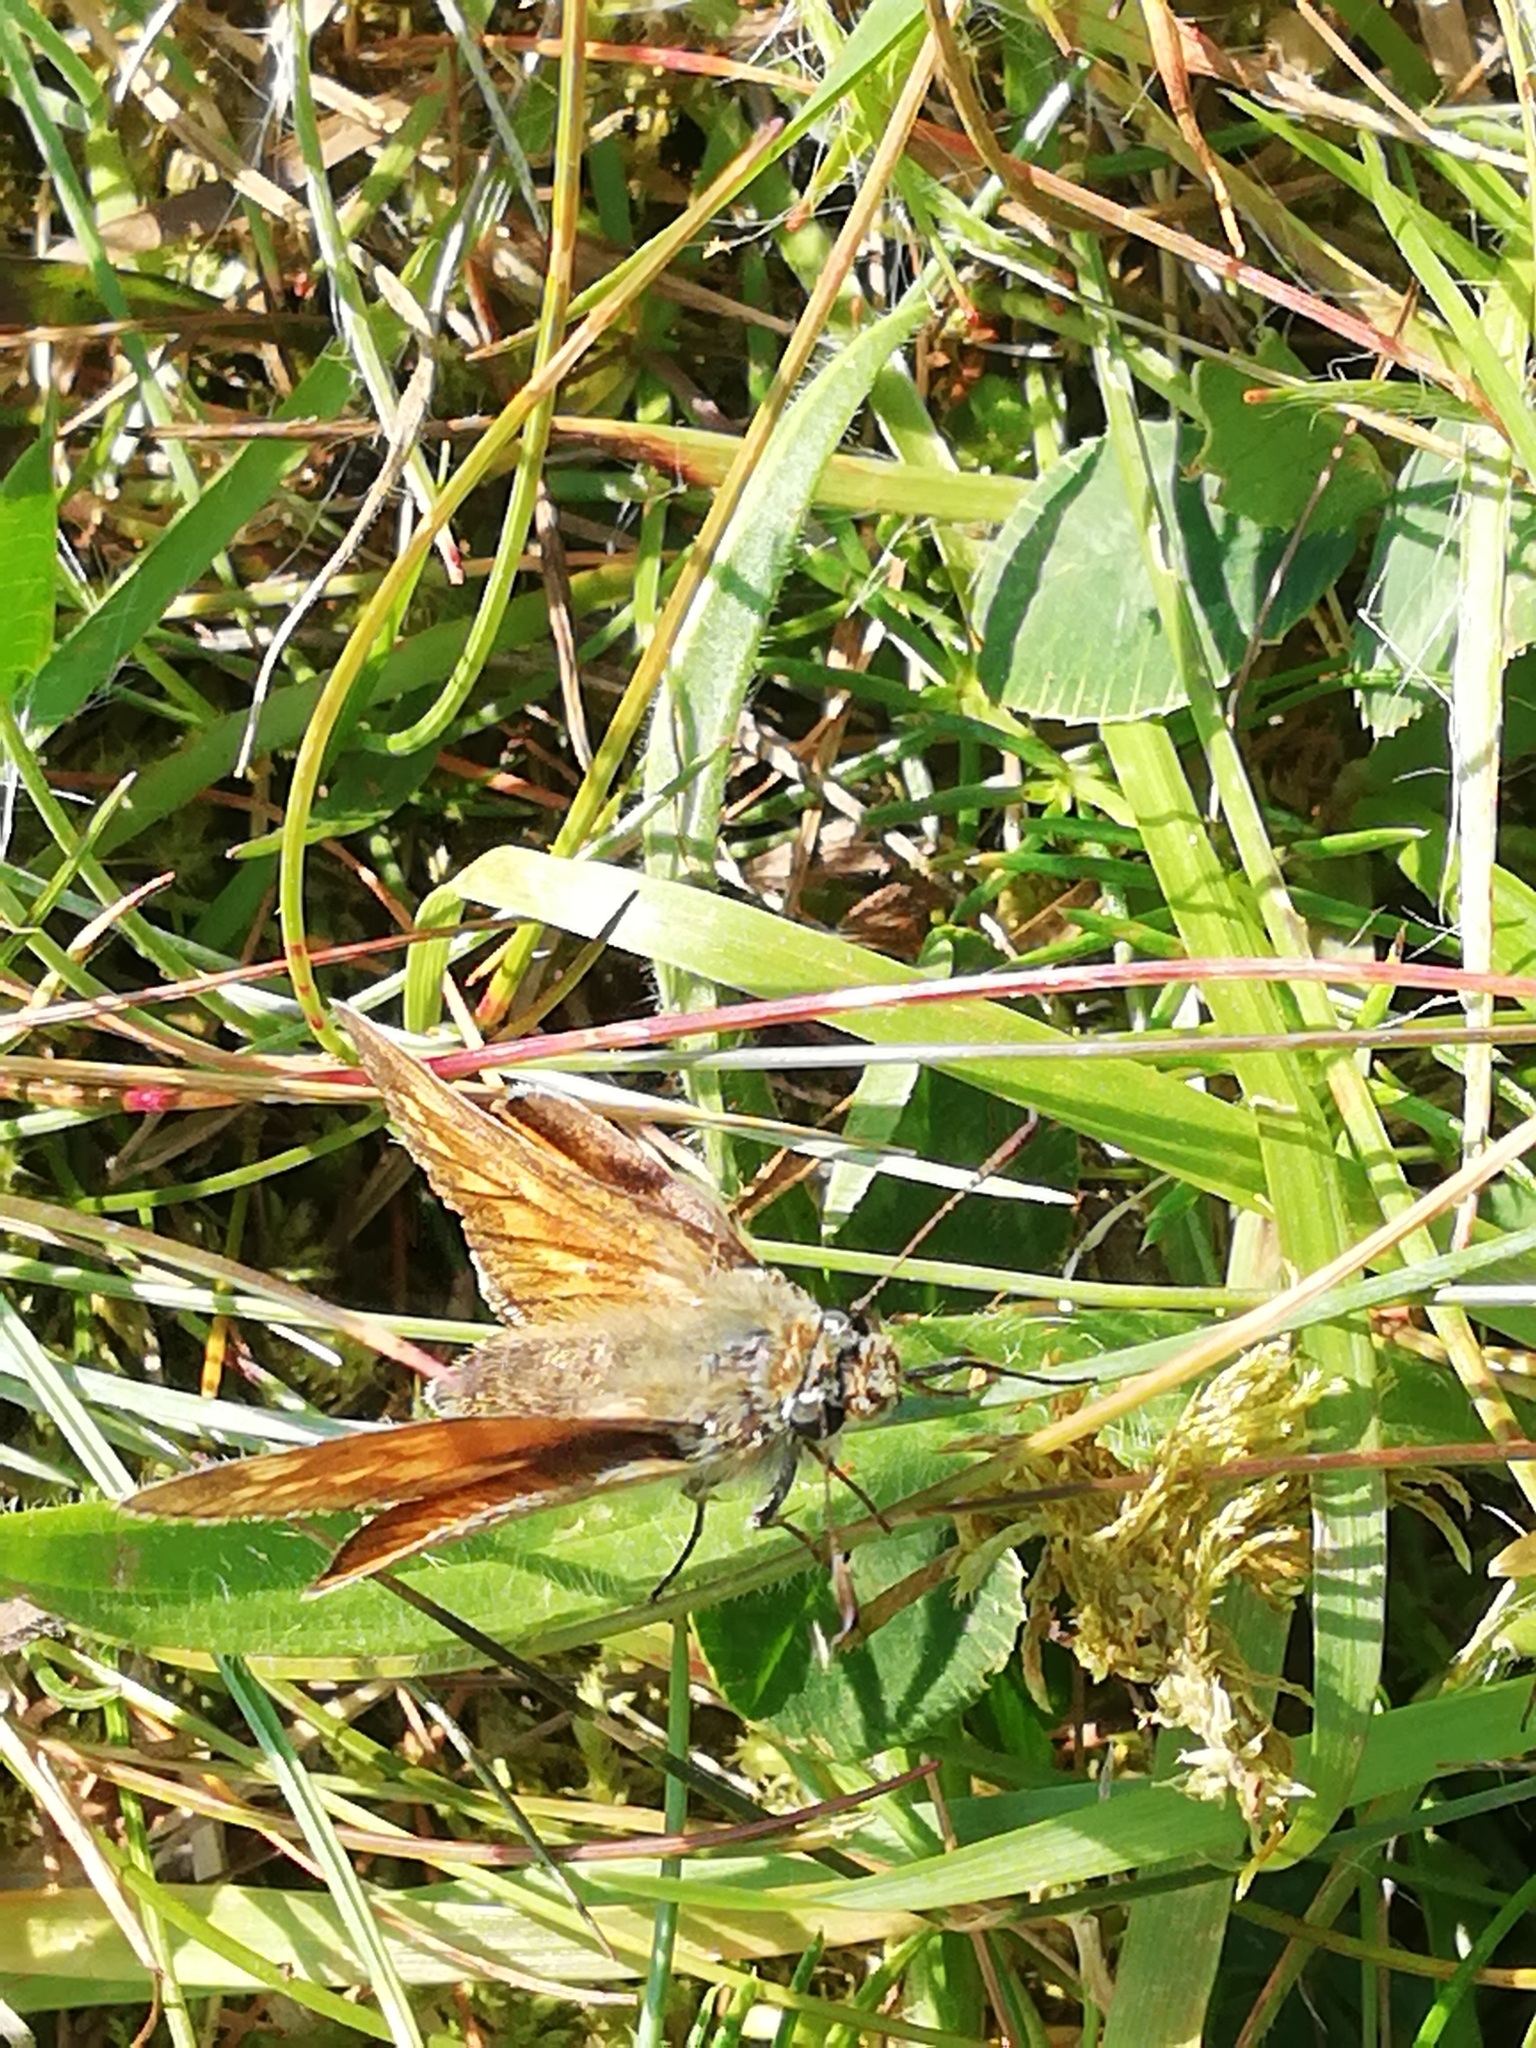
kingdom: Animalia
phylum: Arthropoda
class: Insecta
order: Lepidoptera
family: Hesperiidae
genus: Ochlodes
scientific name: Ochlodes venata
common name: Large skipper
